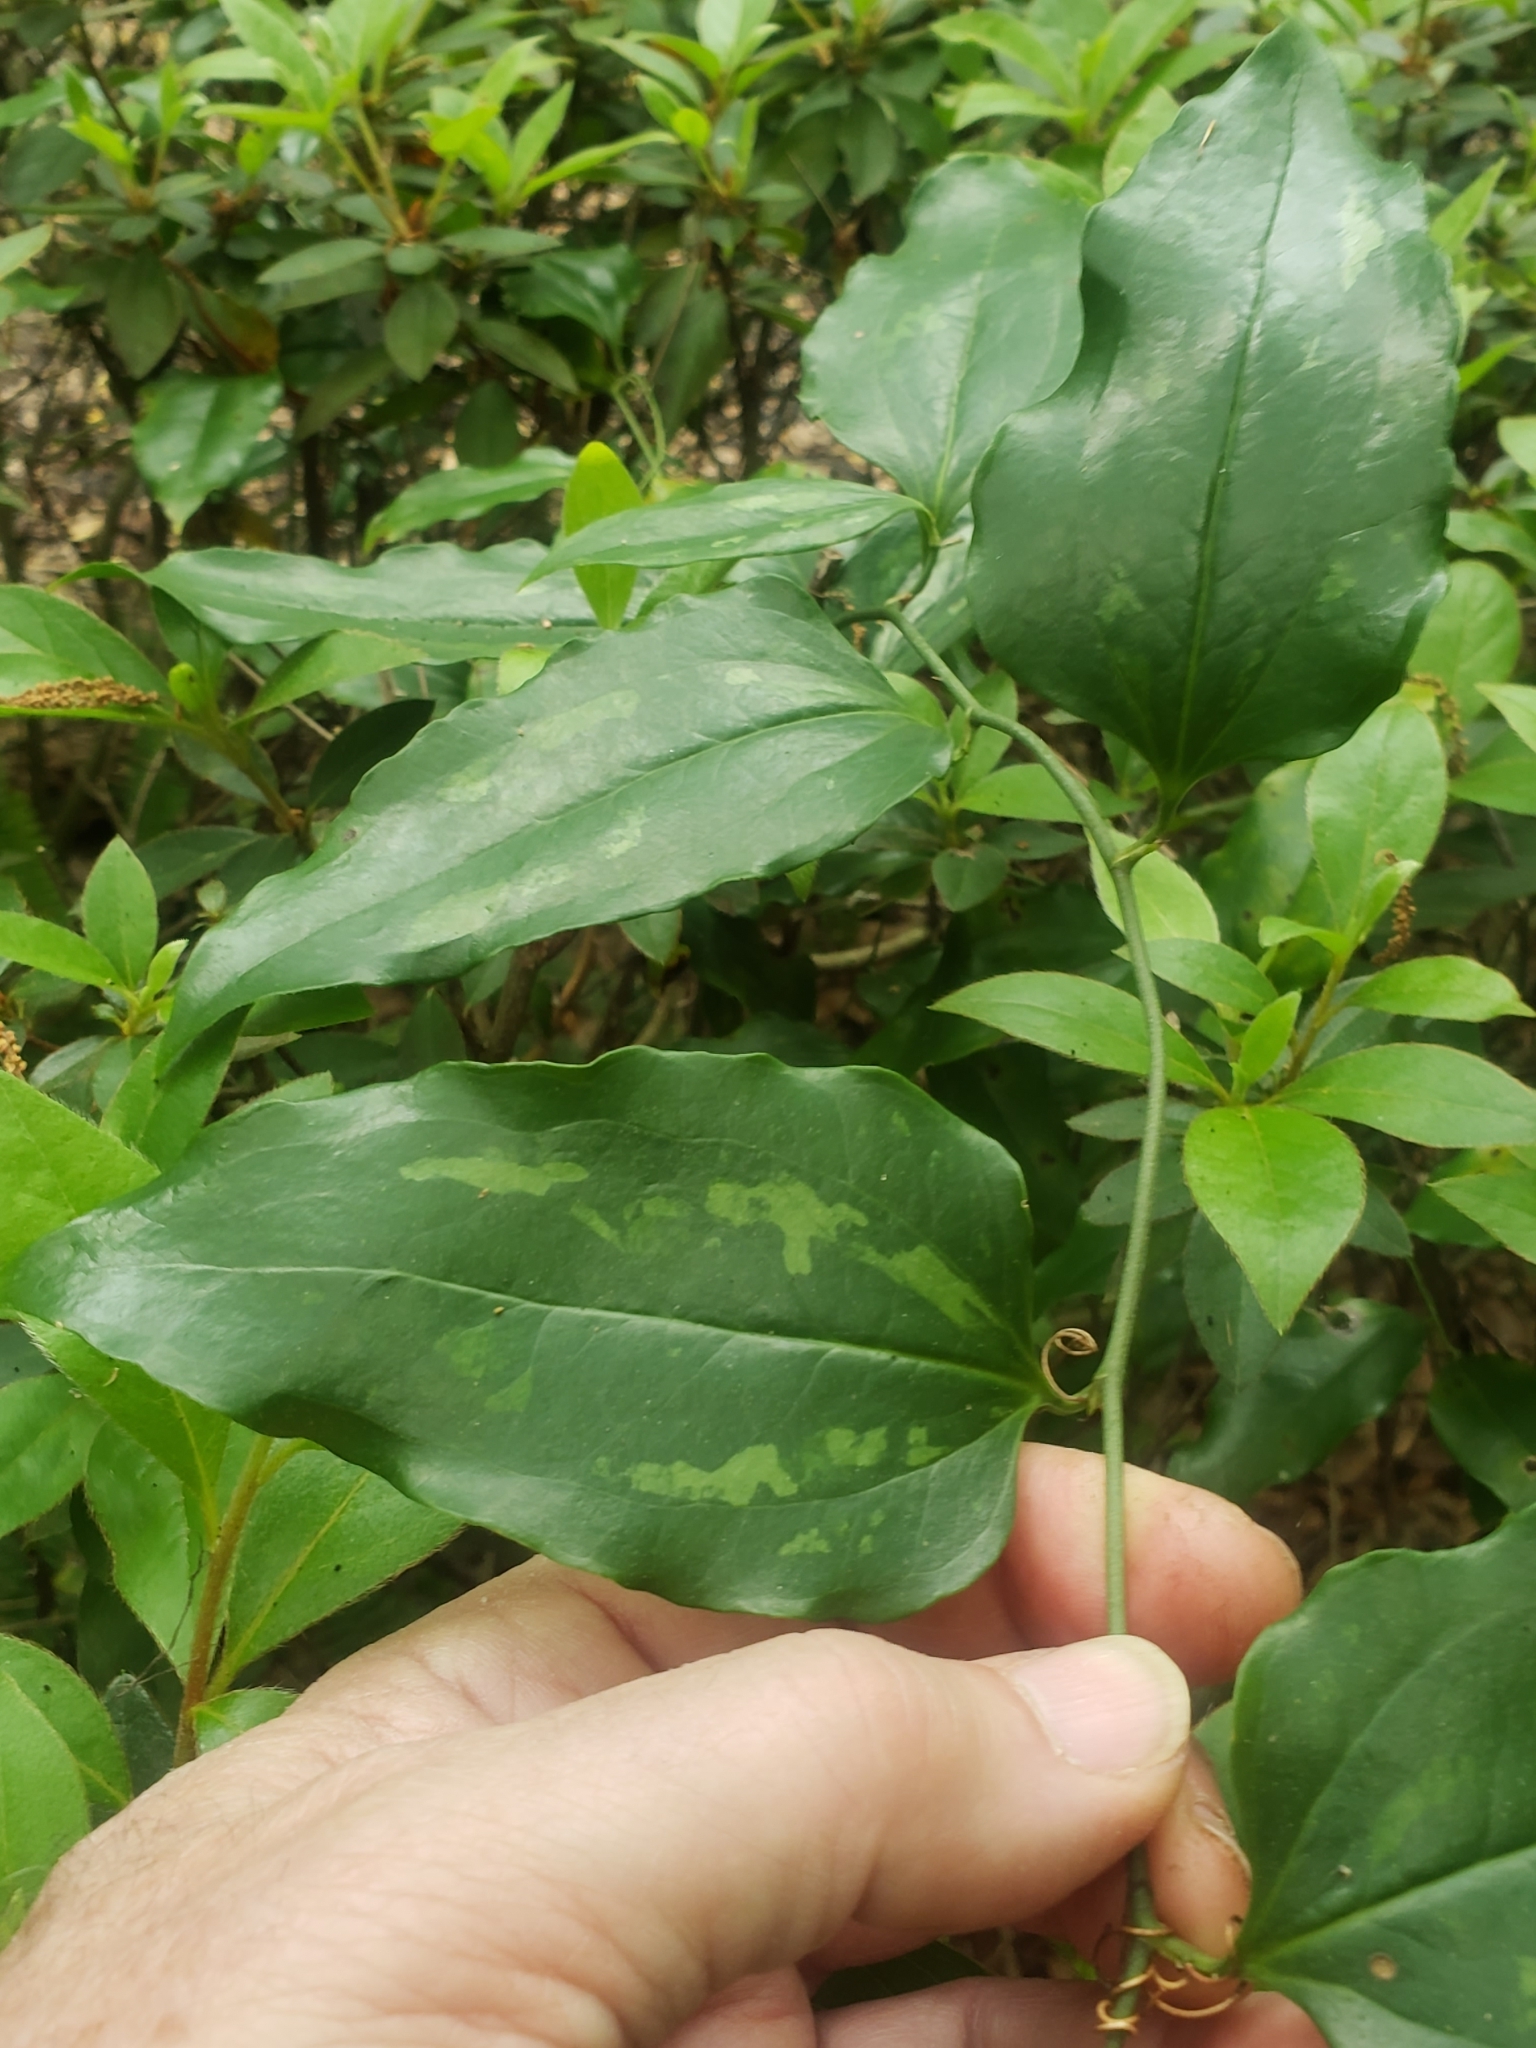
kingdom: Plantae
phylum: Tracheophyta
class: Liliopsida
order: Liliales
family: Smilacaceae
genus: Smilax
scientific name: Smilax maritima
